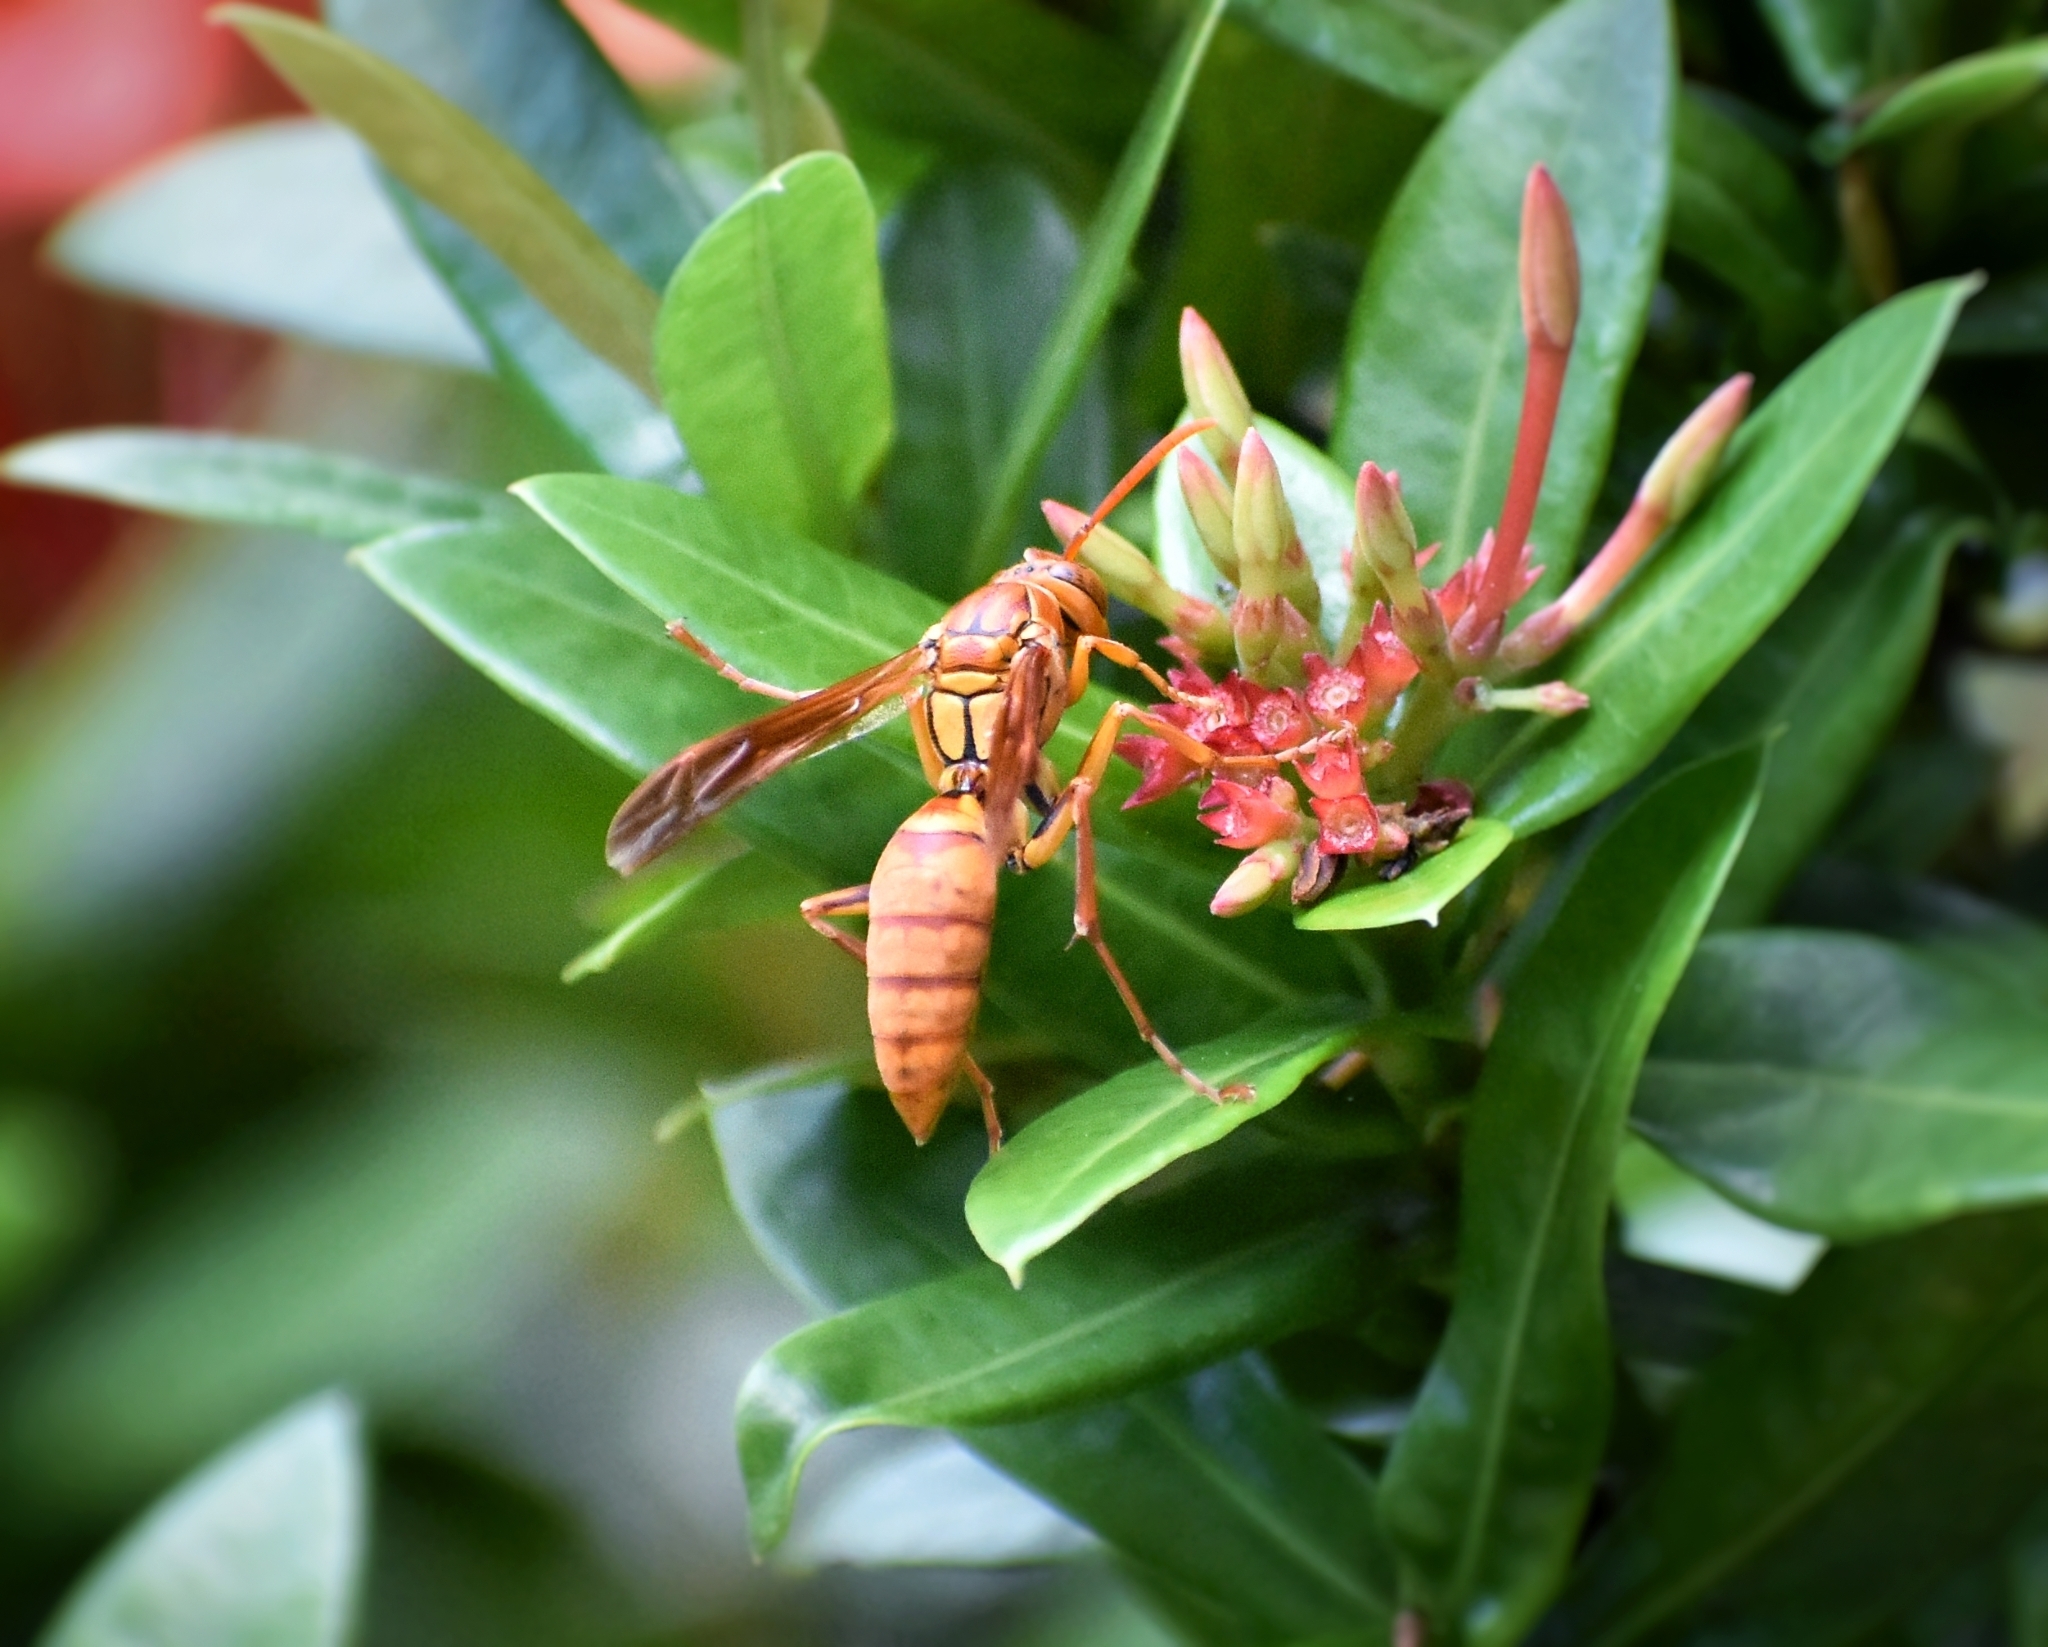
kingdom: Animalia
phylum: Arthropoda
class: Insecta
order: Hymenoptera
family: Eumenidae
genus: Polistes
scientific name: Polistes japonicus
